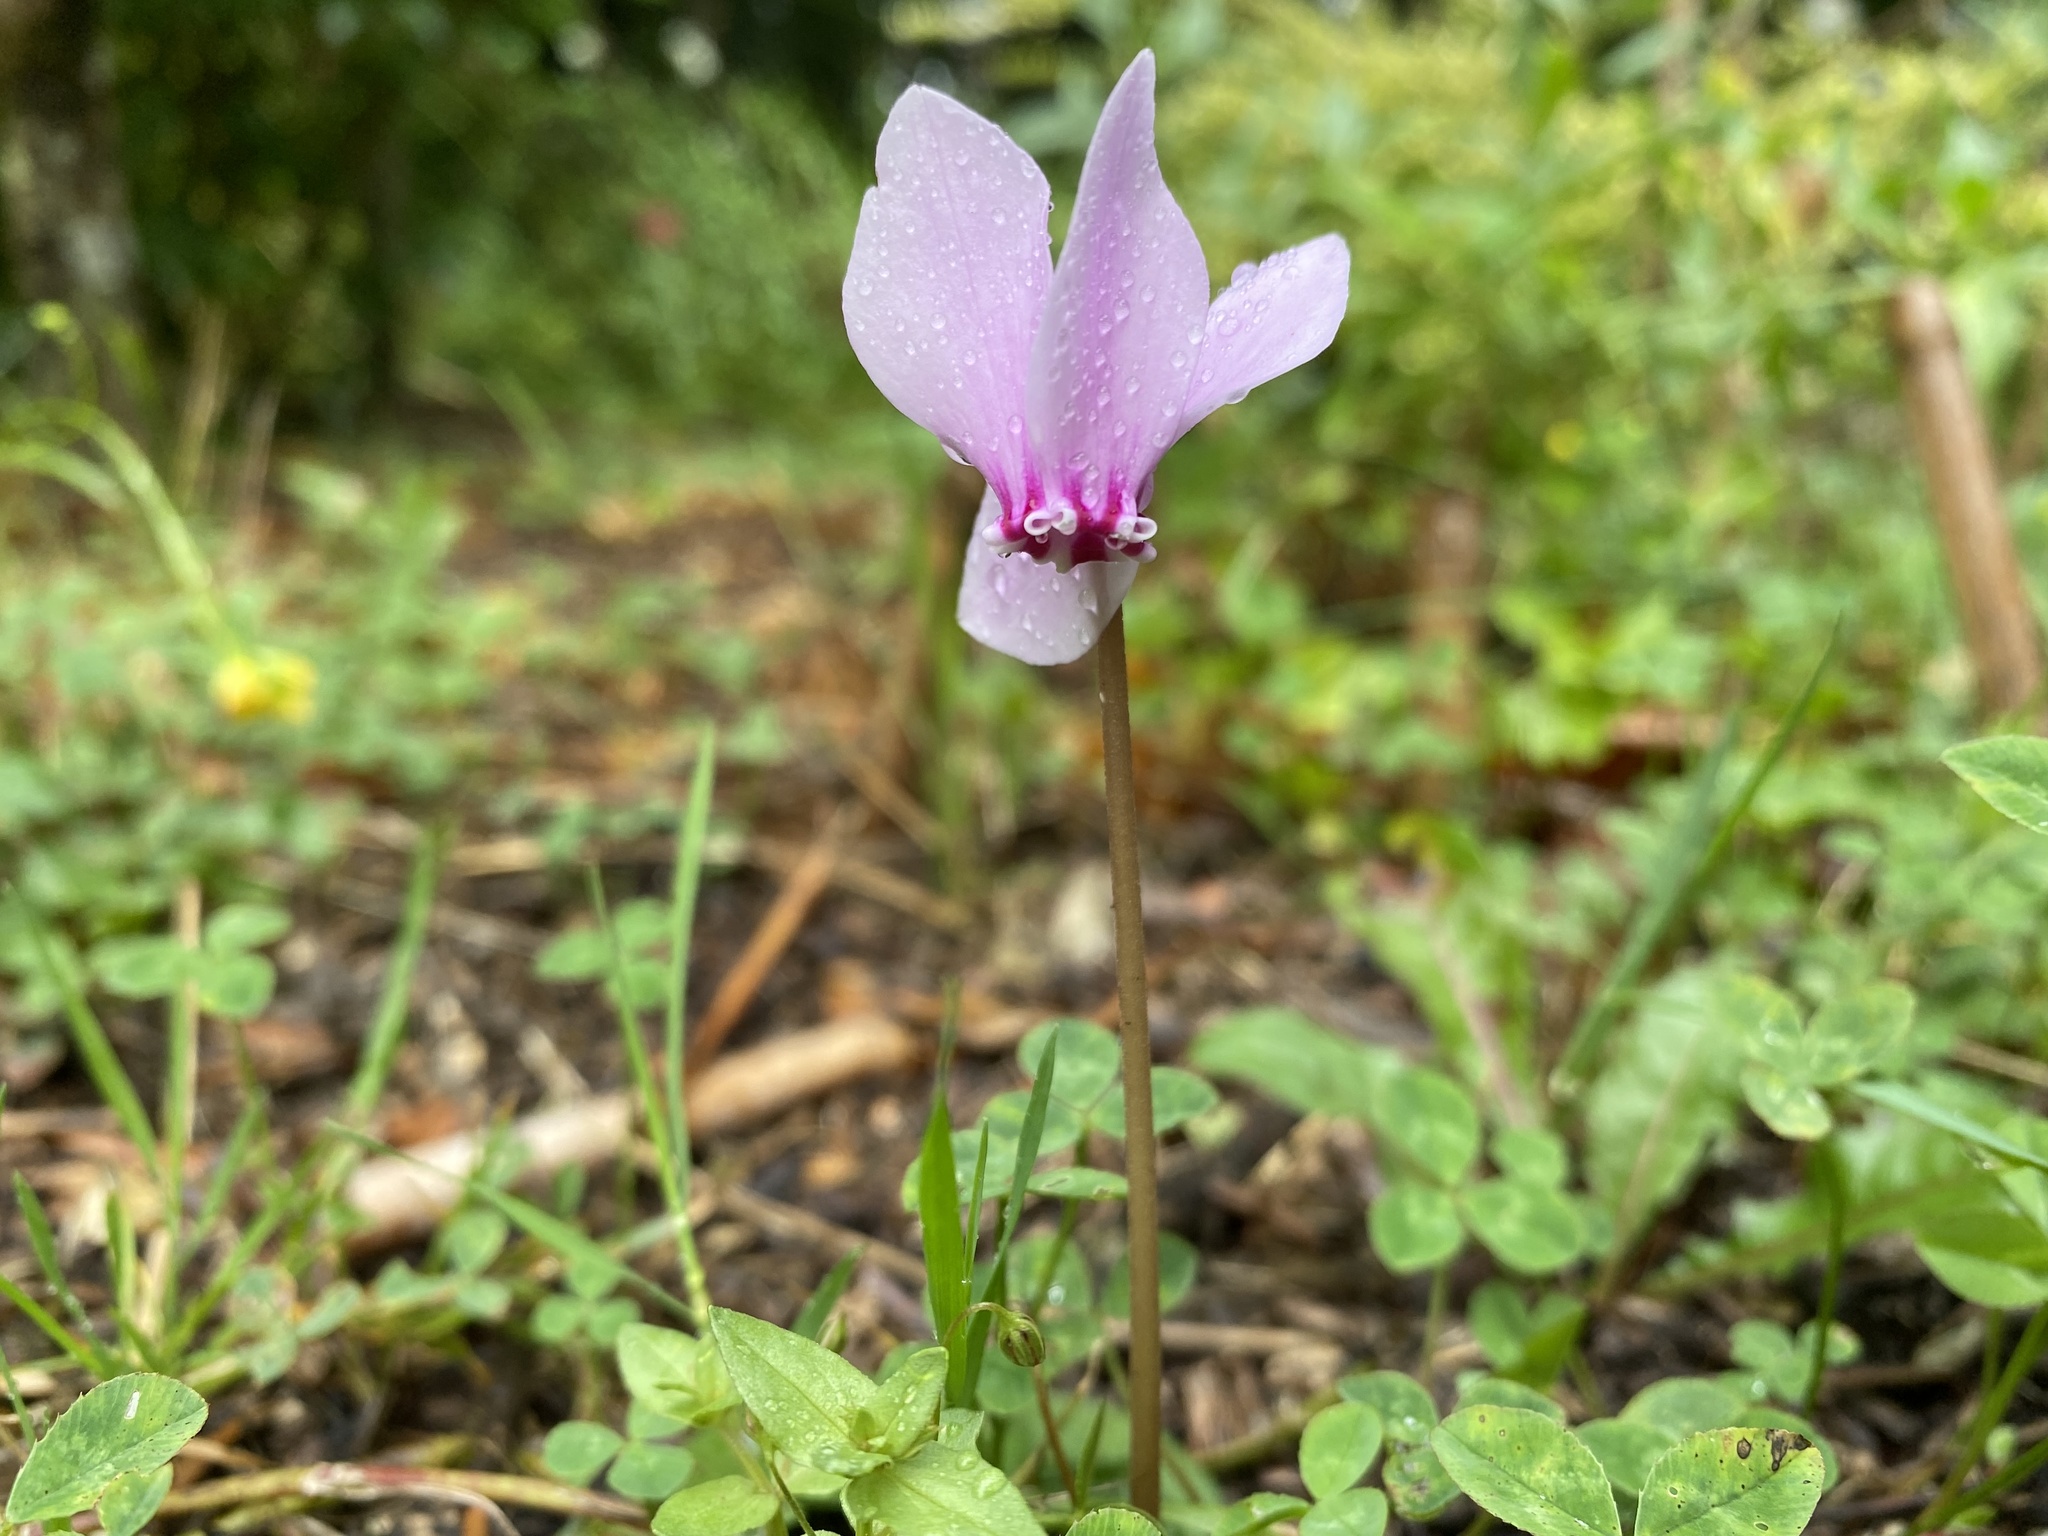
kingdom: Plantae
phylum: Tracheophyta
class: Magnoliopsida
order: Ericales
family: Primulaceae
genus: Cyclamen
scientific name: Cyclamen hederifolium
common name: Sowbread
